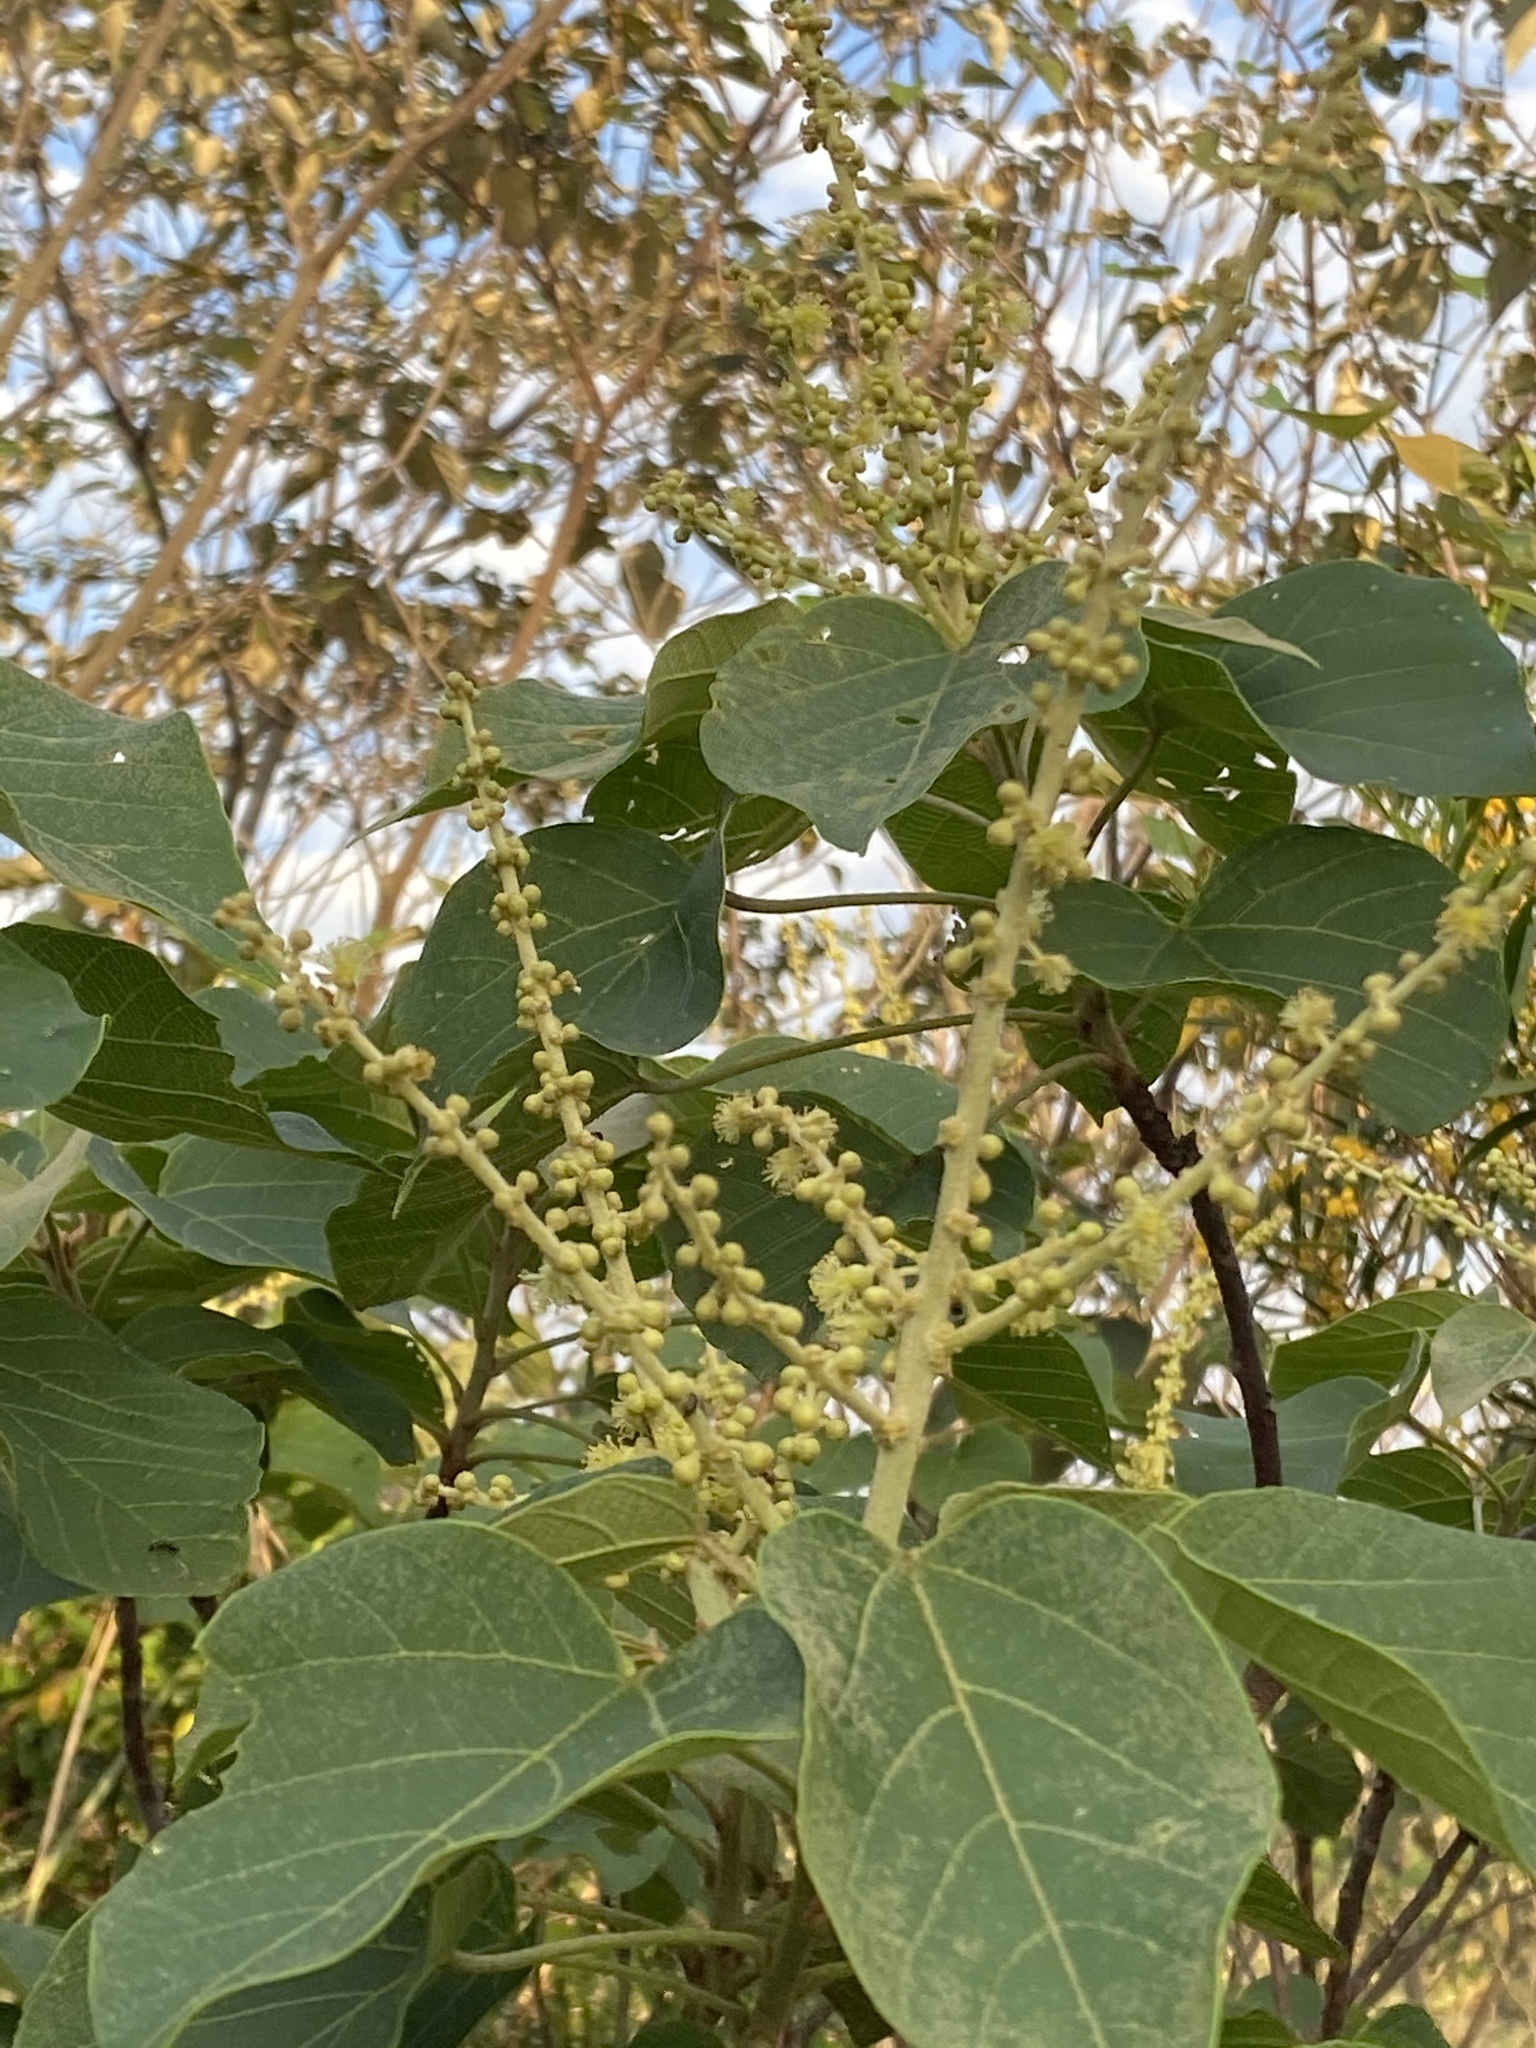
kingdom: Plantae
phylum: Tracheophyta
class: Magnoliopsida
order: Malpighiales
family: Euphorbiaceae
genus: Mallotus
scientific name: Mallotus japonicus
